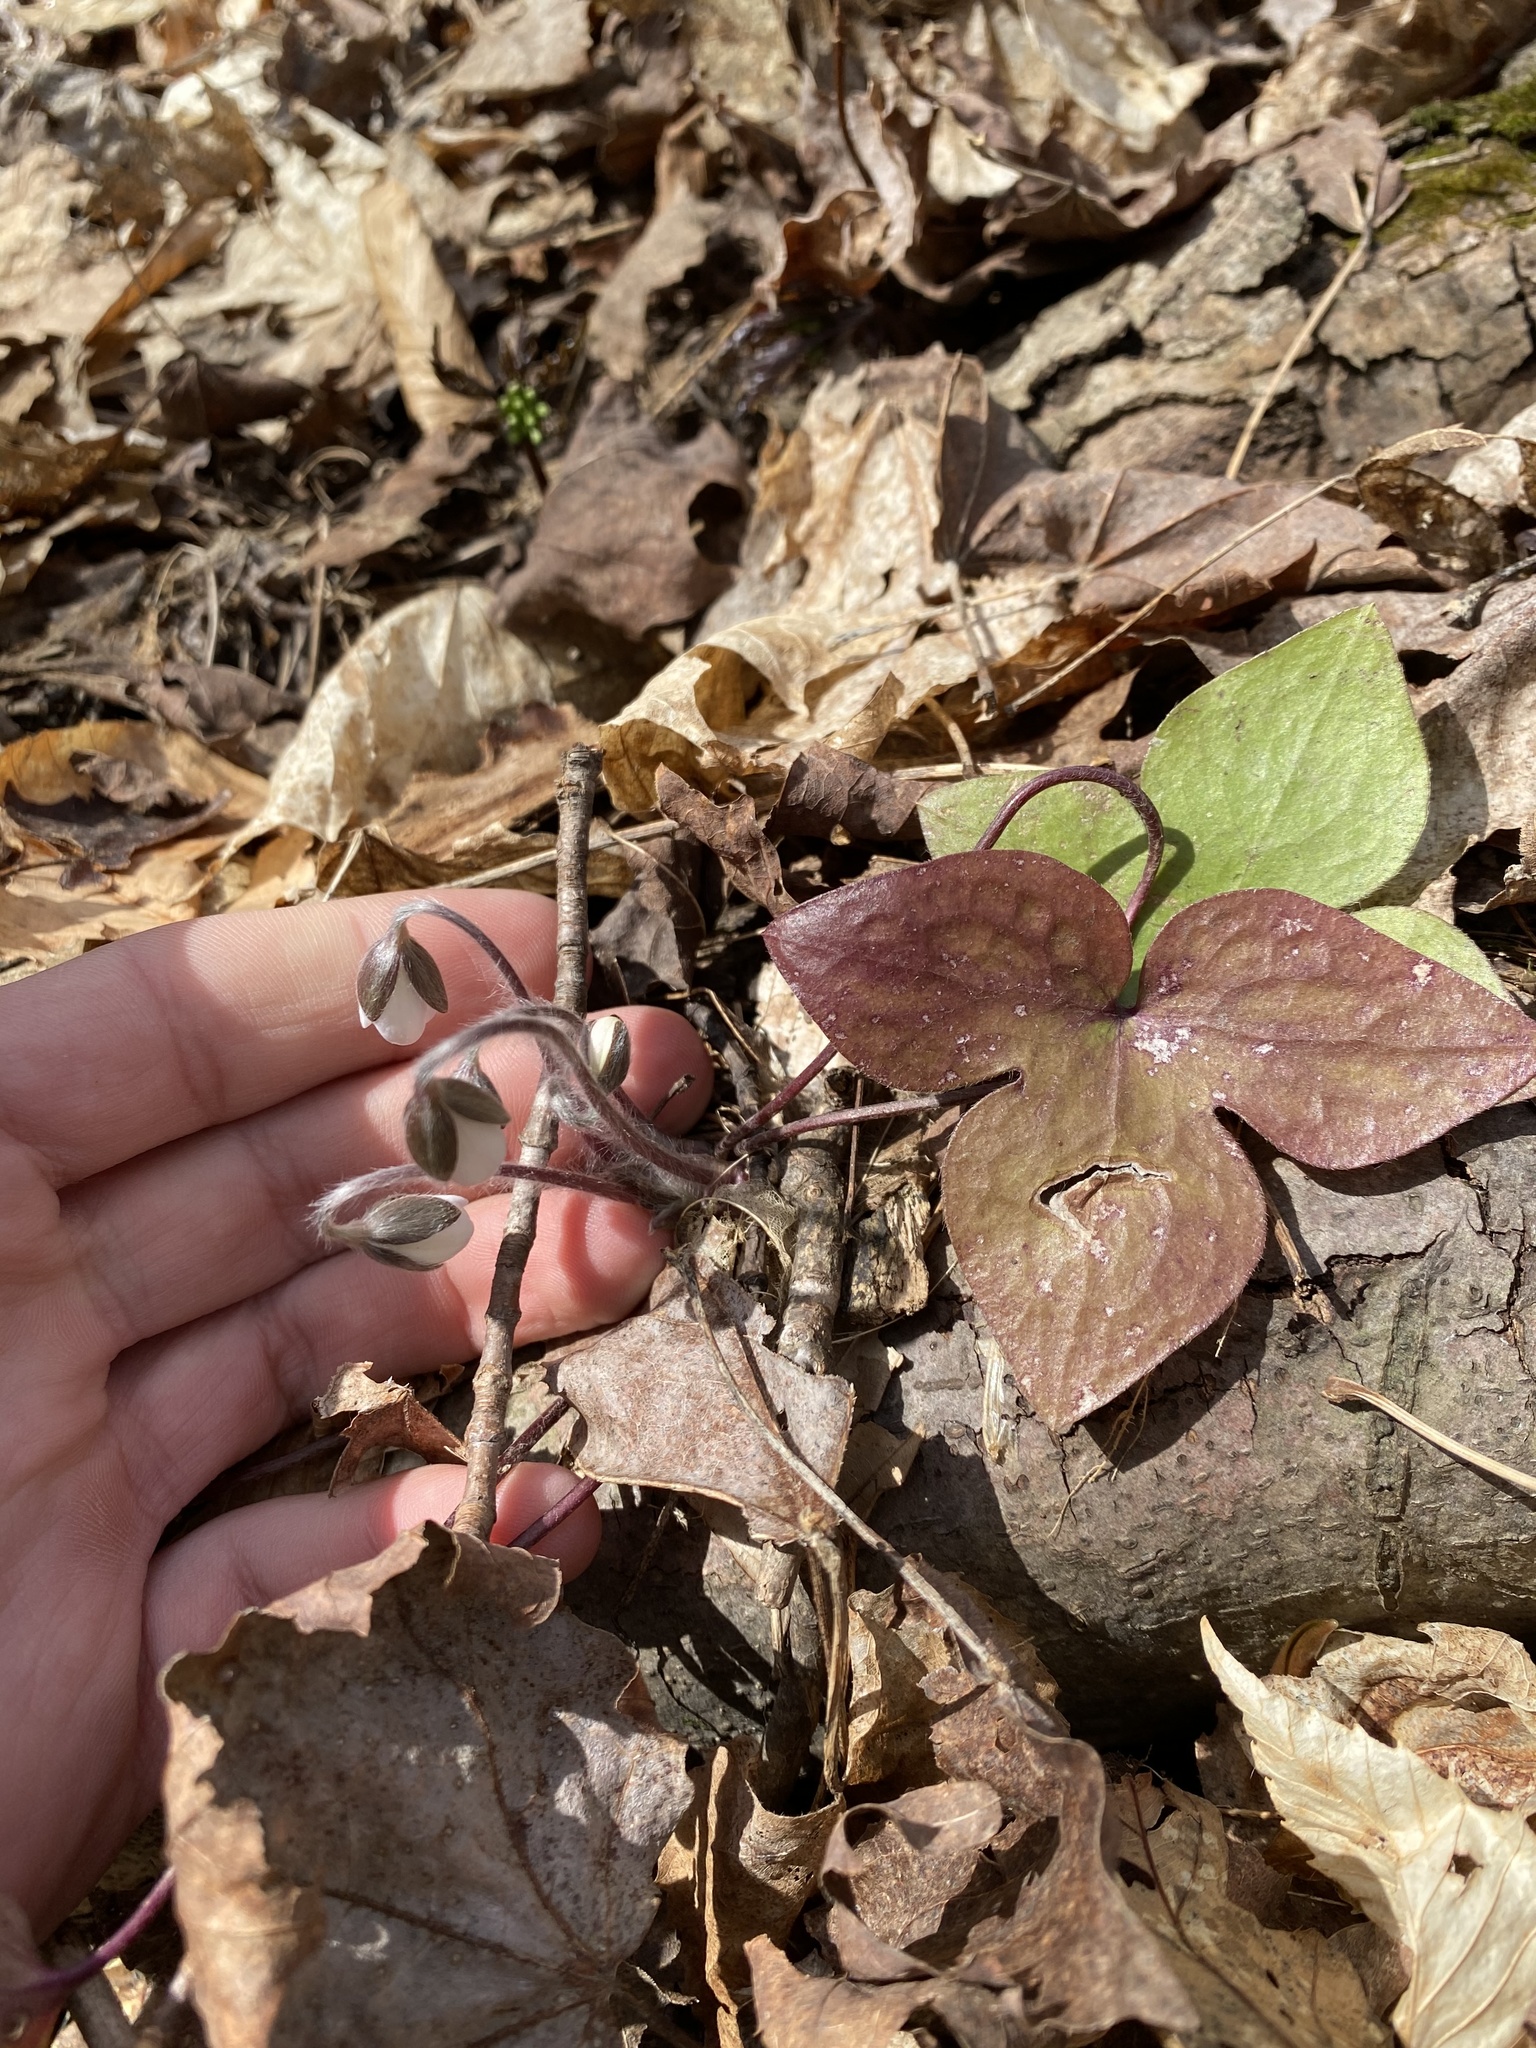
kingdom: Plantae
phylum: Tracheophyta
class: Magnoliopsida
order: Ranunculales
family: Ranunculaceae
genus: Hepatica
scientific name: Hepatica acutiloba
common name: Sharp-lobed hepatica
